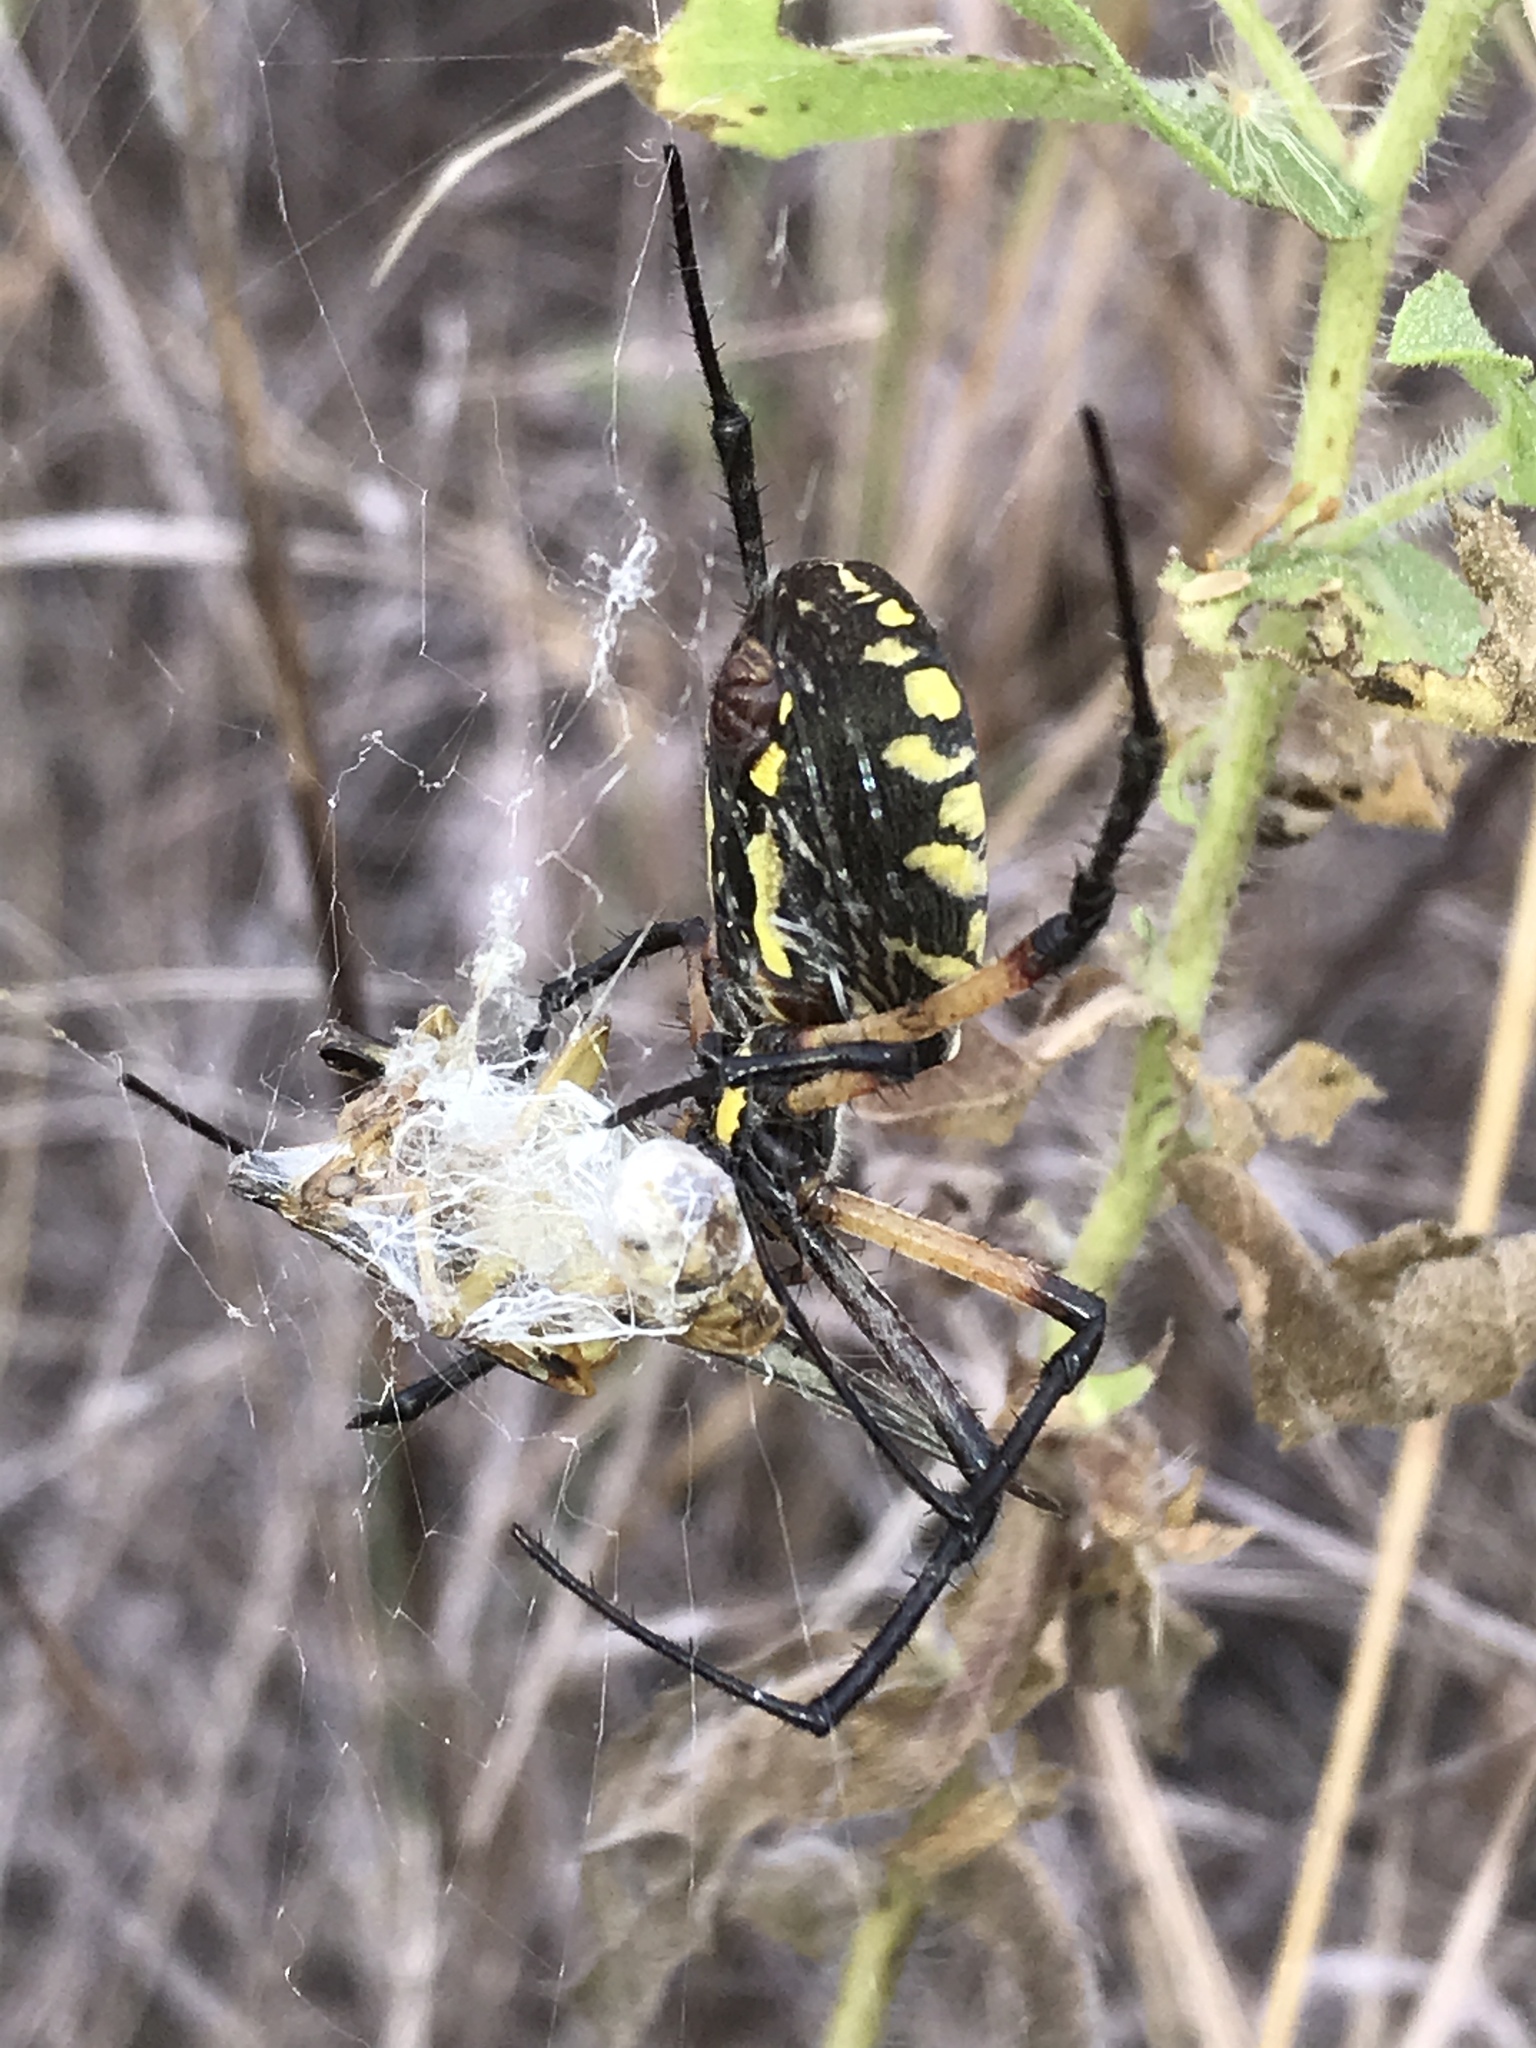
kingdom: Animalia
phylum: Arthropoda
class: Arachnida
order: Araneae
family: Araneidae
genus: Argiope
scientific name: Argiope aurantia
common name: Orb weavers
